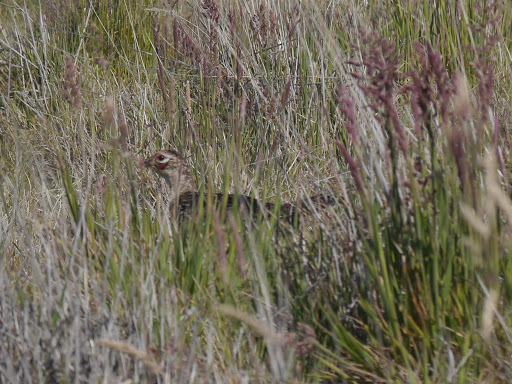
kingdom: Animalia
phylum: Chordata
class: Aves
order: Galliformes
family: Phasianidae
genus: Phasianus
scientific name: Phasianus colchicus
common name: Common pheasant
